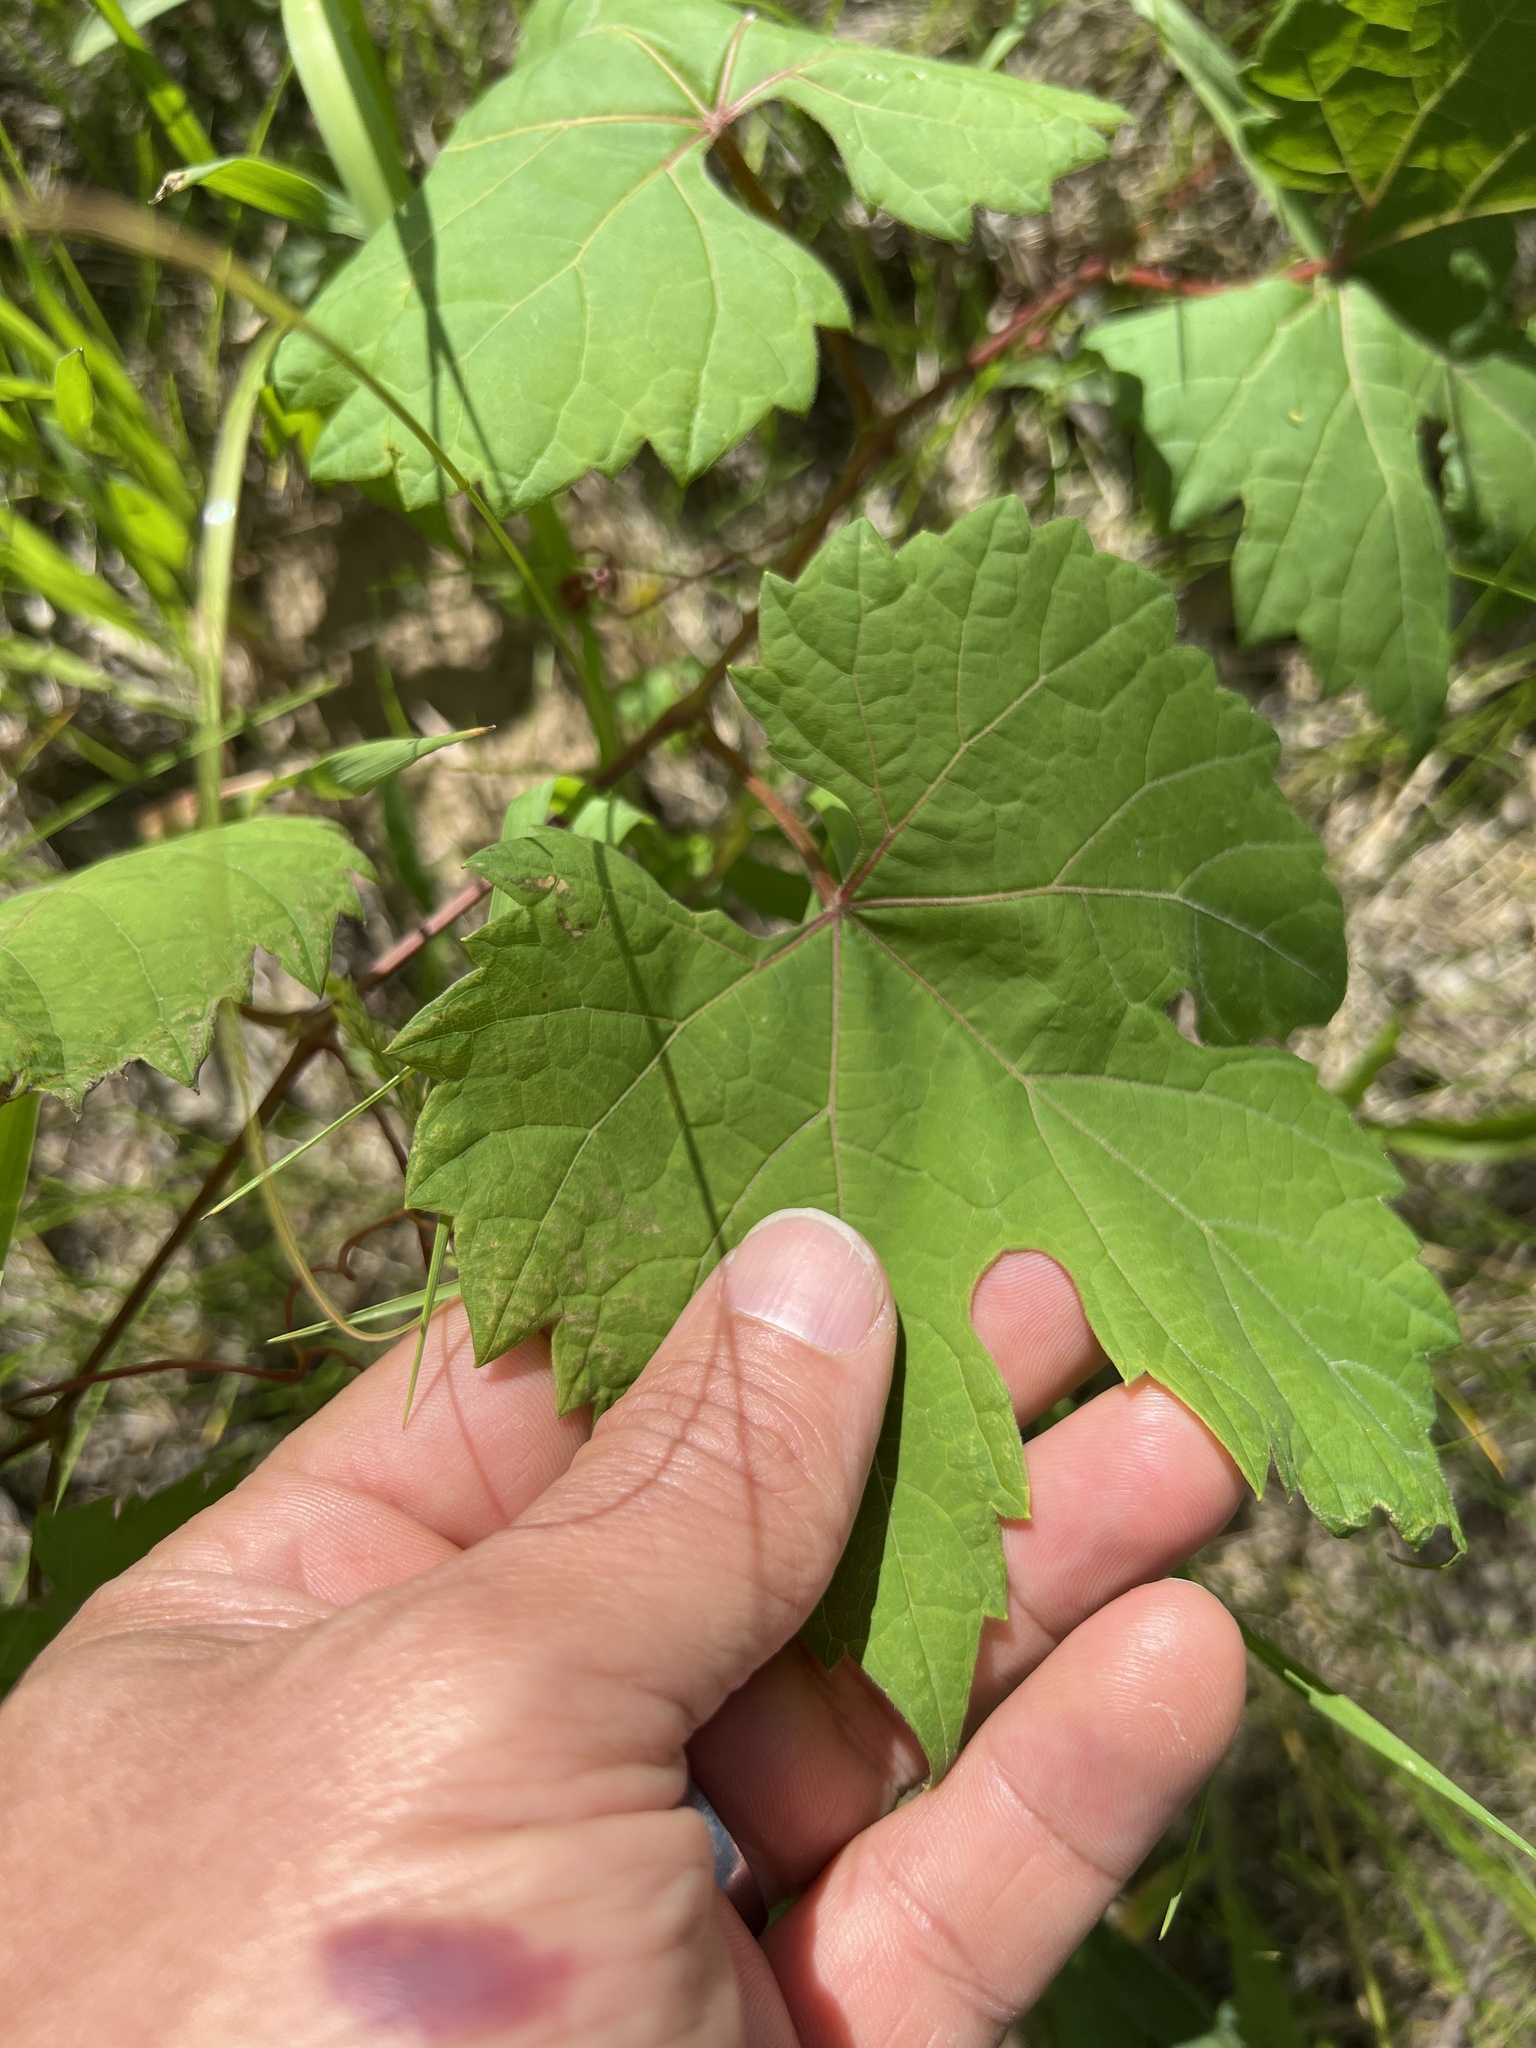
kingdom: Plantae
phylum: Tracheophyta
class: Magnoliopsida
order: Vitales
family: Vitaceae
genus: Vitis
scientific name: Vitis riparia
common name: Frost grape
